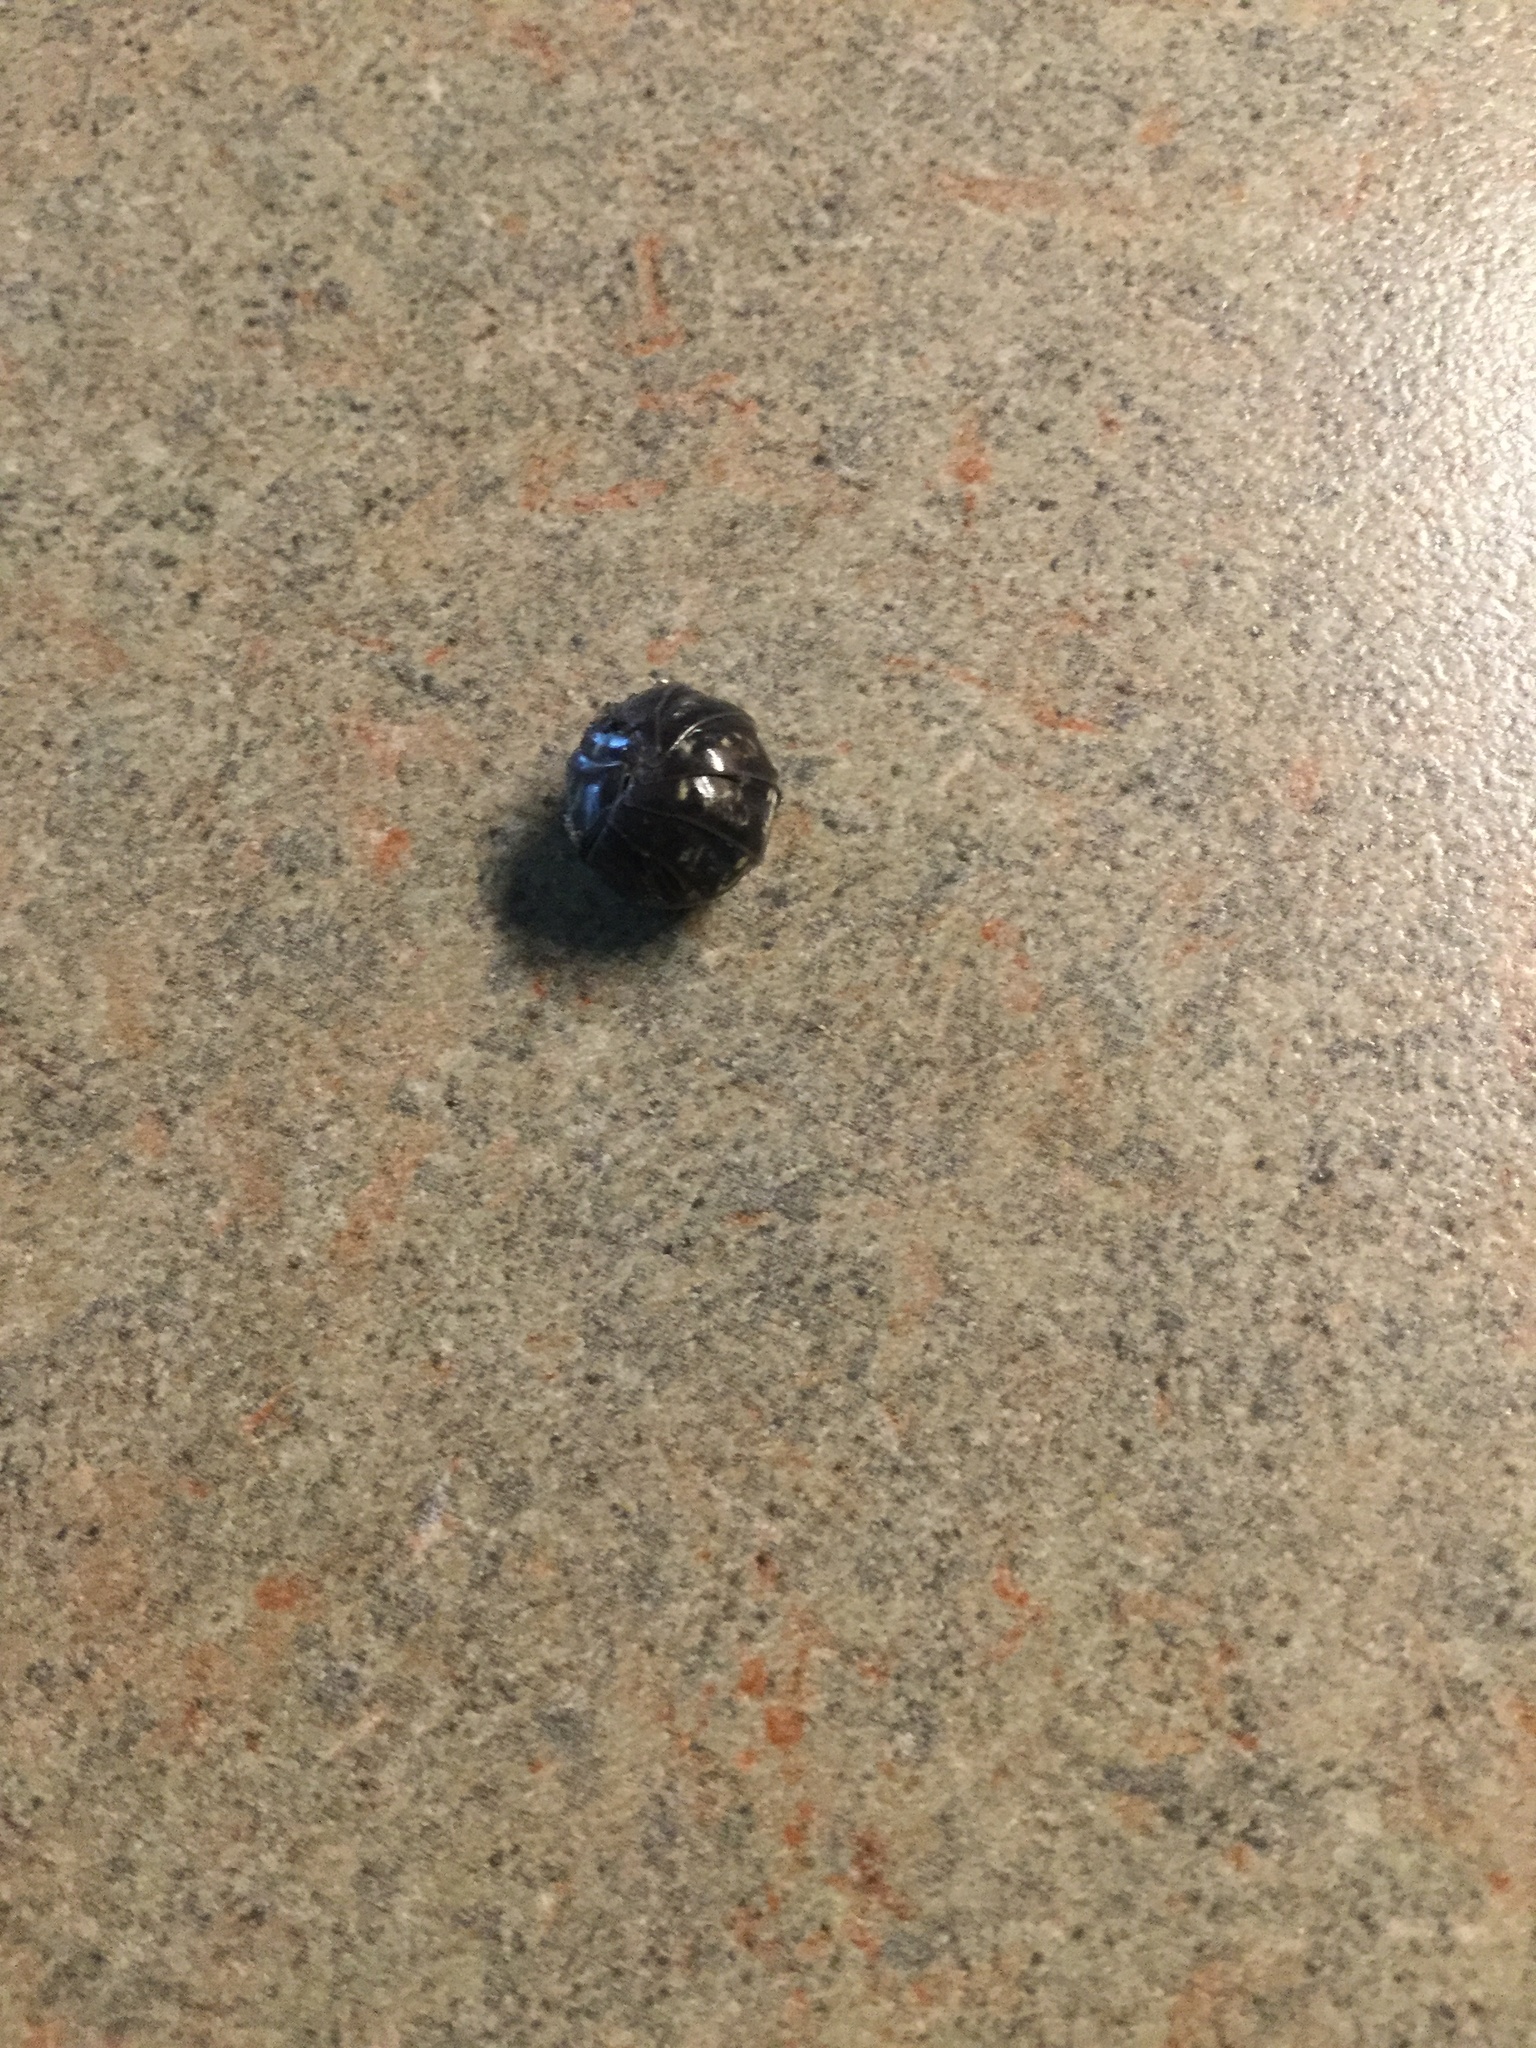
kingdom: Animalia
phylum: Arthropoda
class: Malacostraca
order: Isopoda
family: Armadillidiidae
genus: Armadillidium
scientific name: Armadillidium vulgare
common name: Common pill woodlouse
